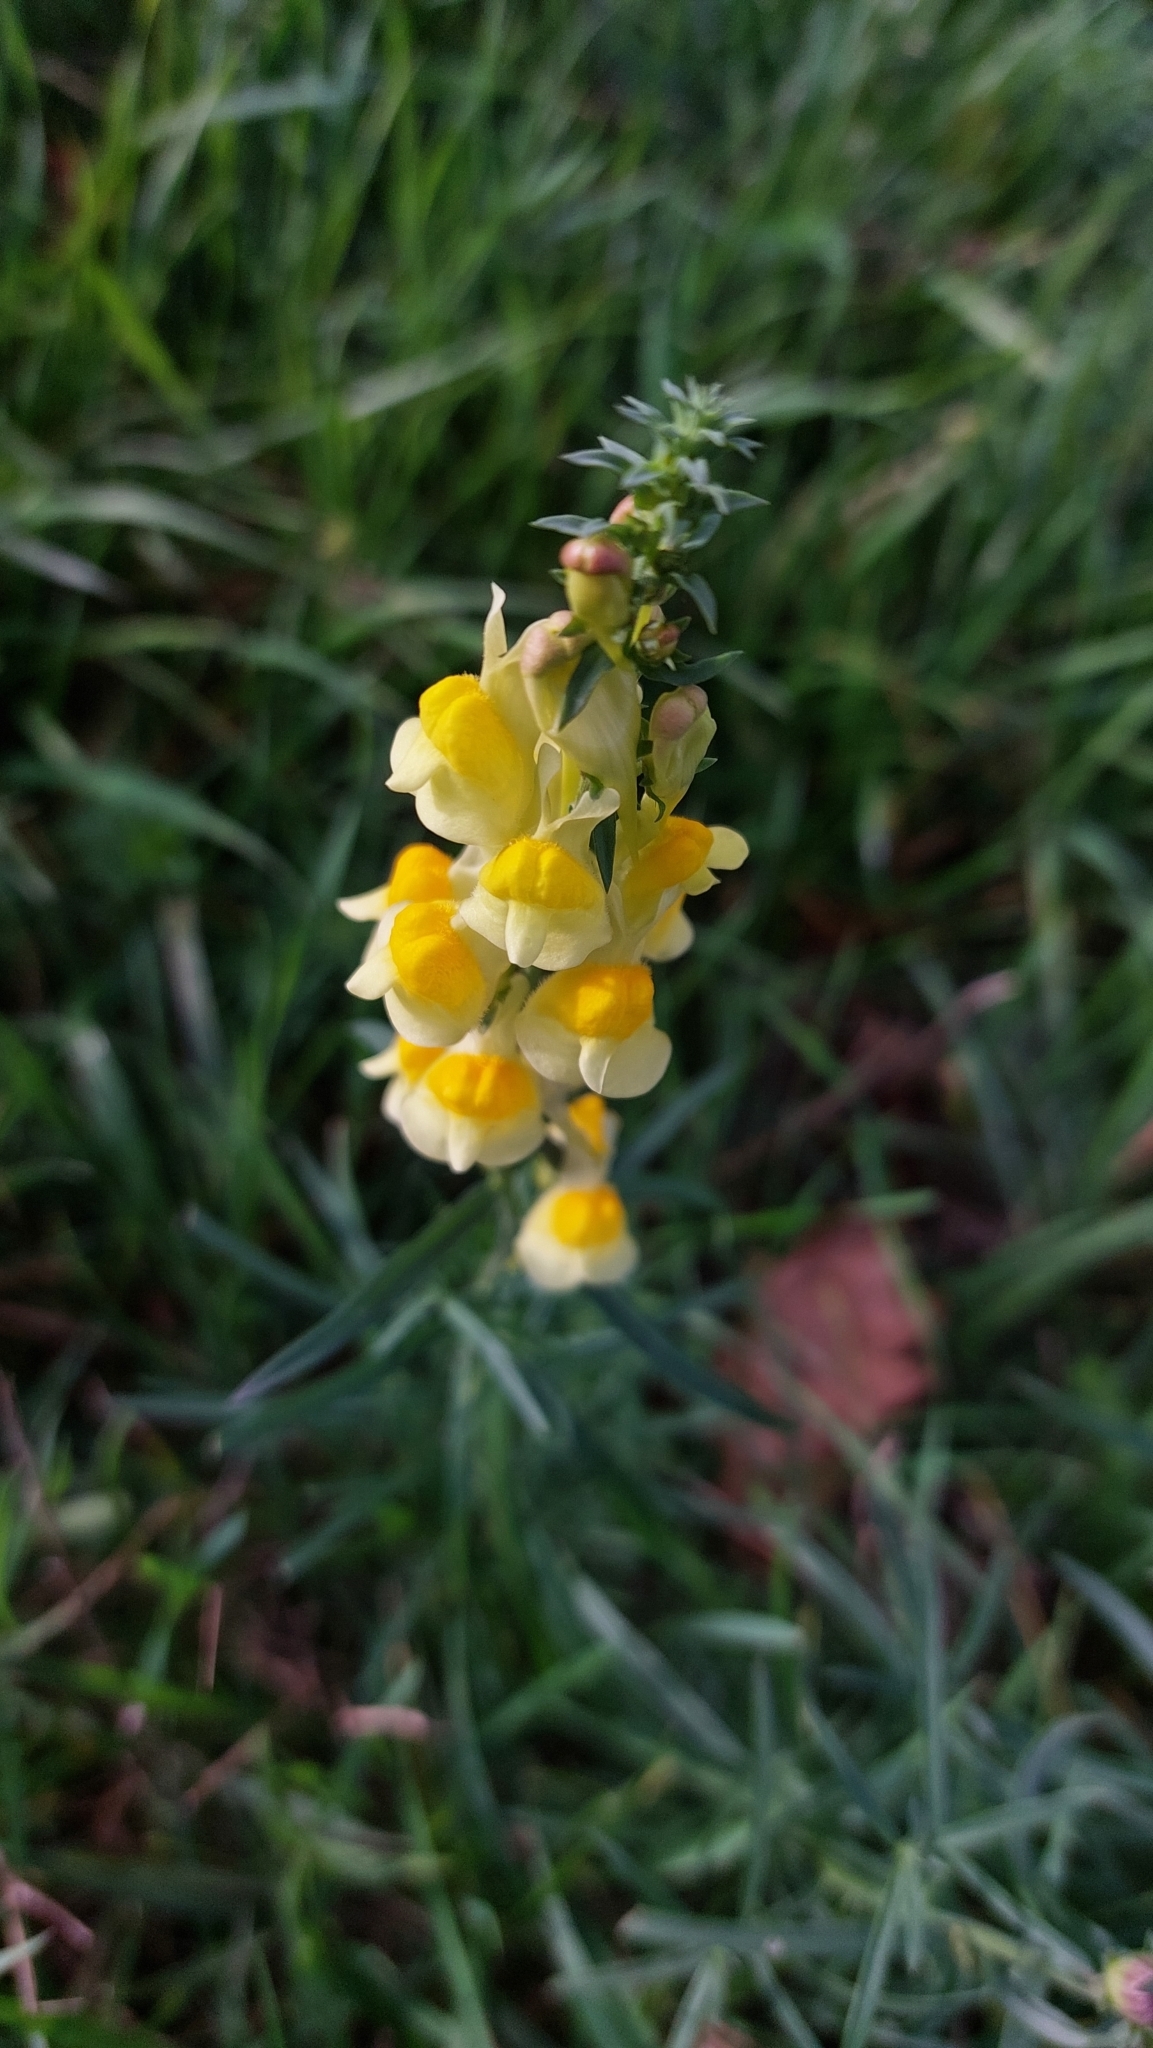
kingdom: Plantae
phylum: Tracheophyta
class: Magnoliopsida
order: Lamiales
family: Plantaginaceae
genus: Linaria
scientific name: Linaria vulgaris
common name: Butter and eggs
